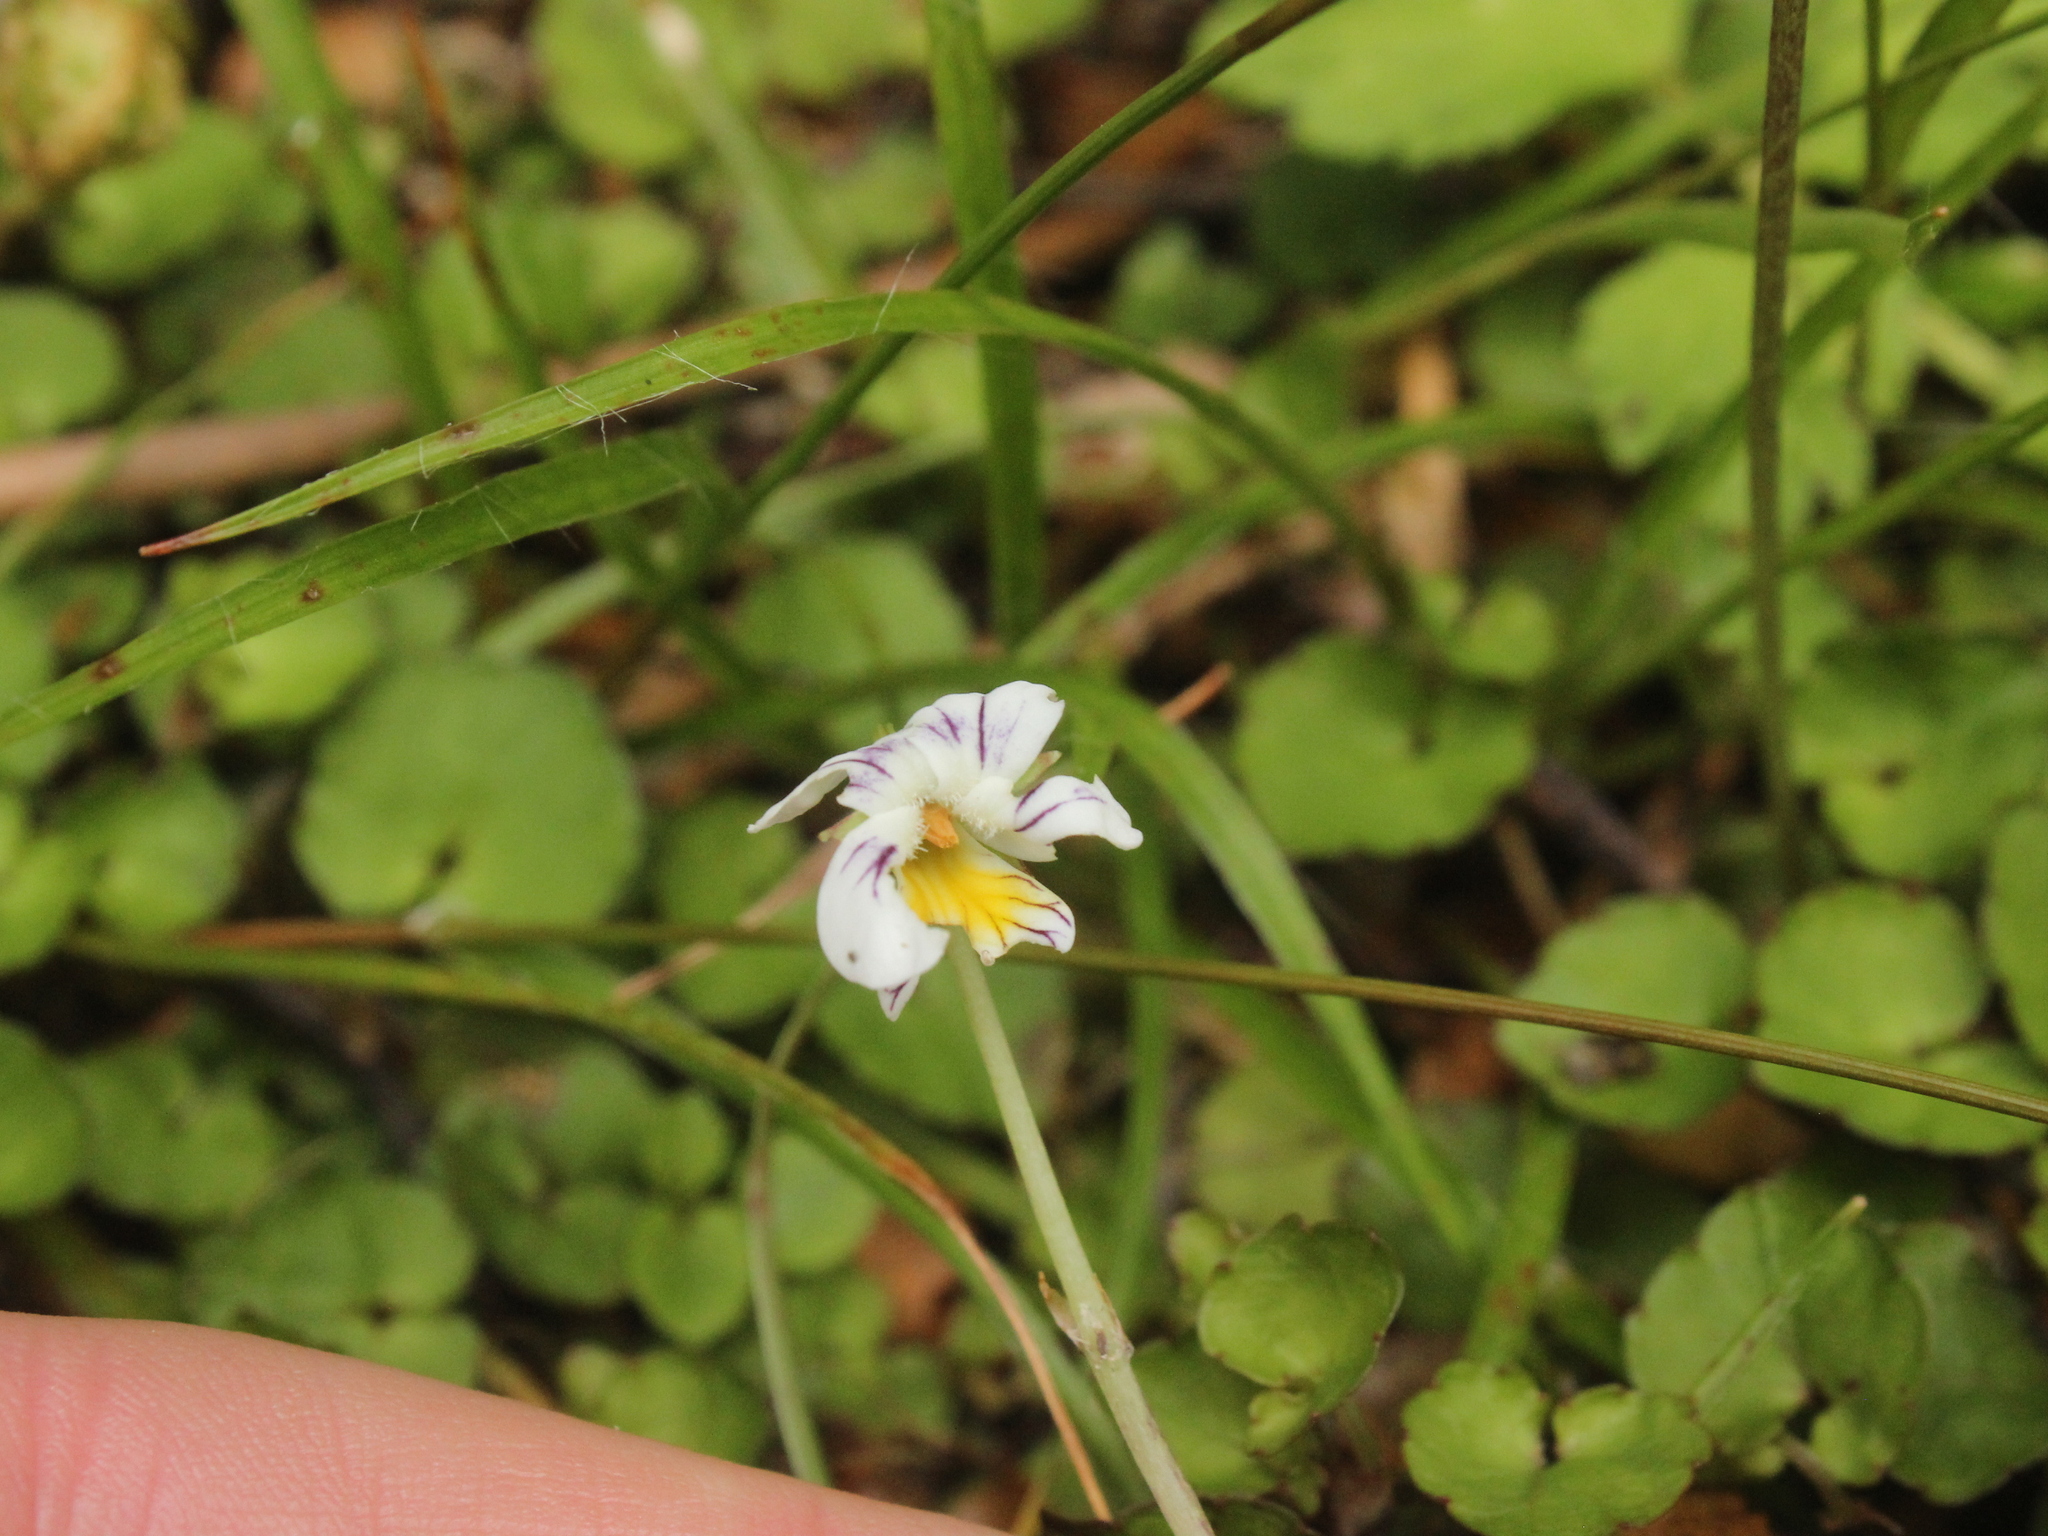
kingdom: Plantae
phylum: Tracheophyta
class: Magnoliopsida
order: Malpighiales
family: Violaceae
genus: Viola
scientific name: Viola filicaulis
